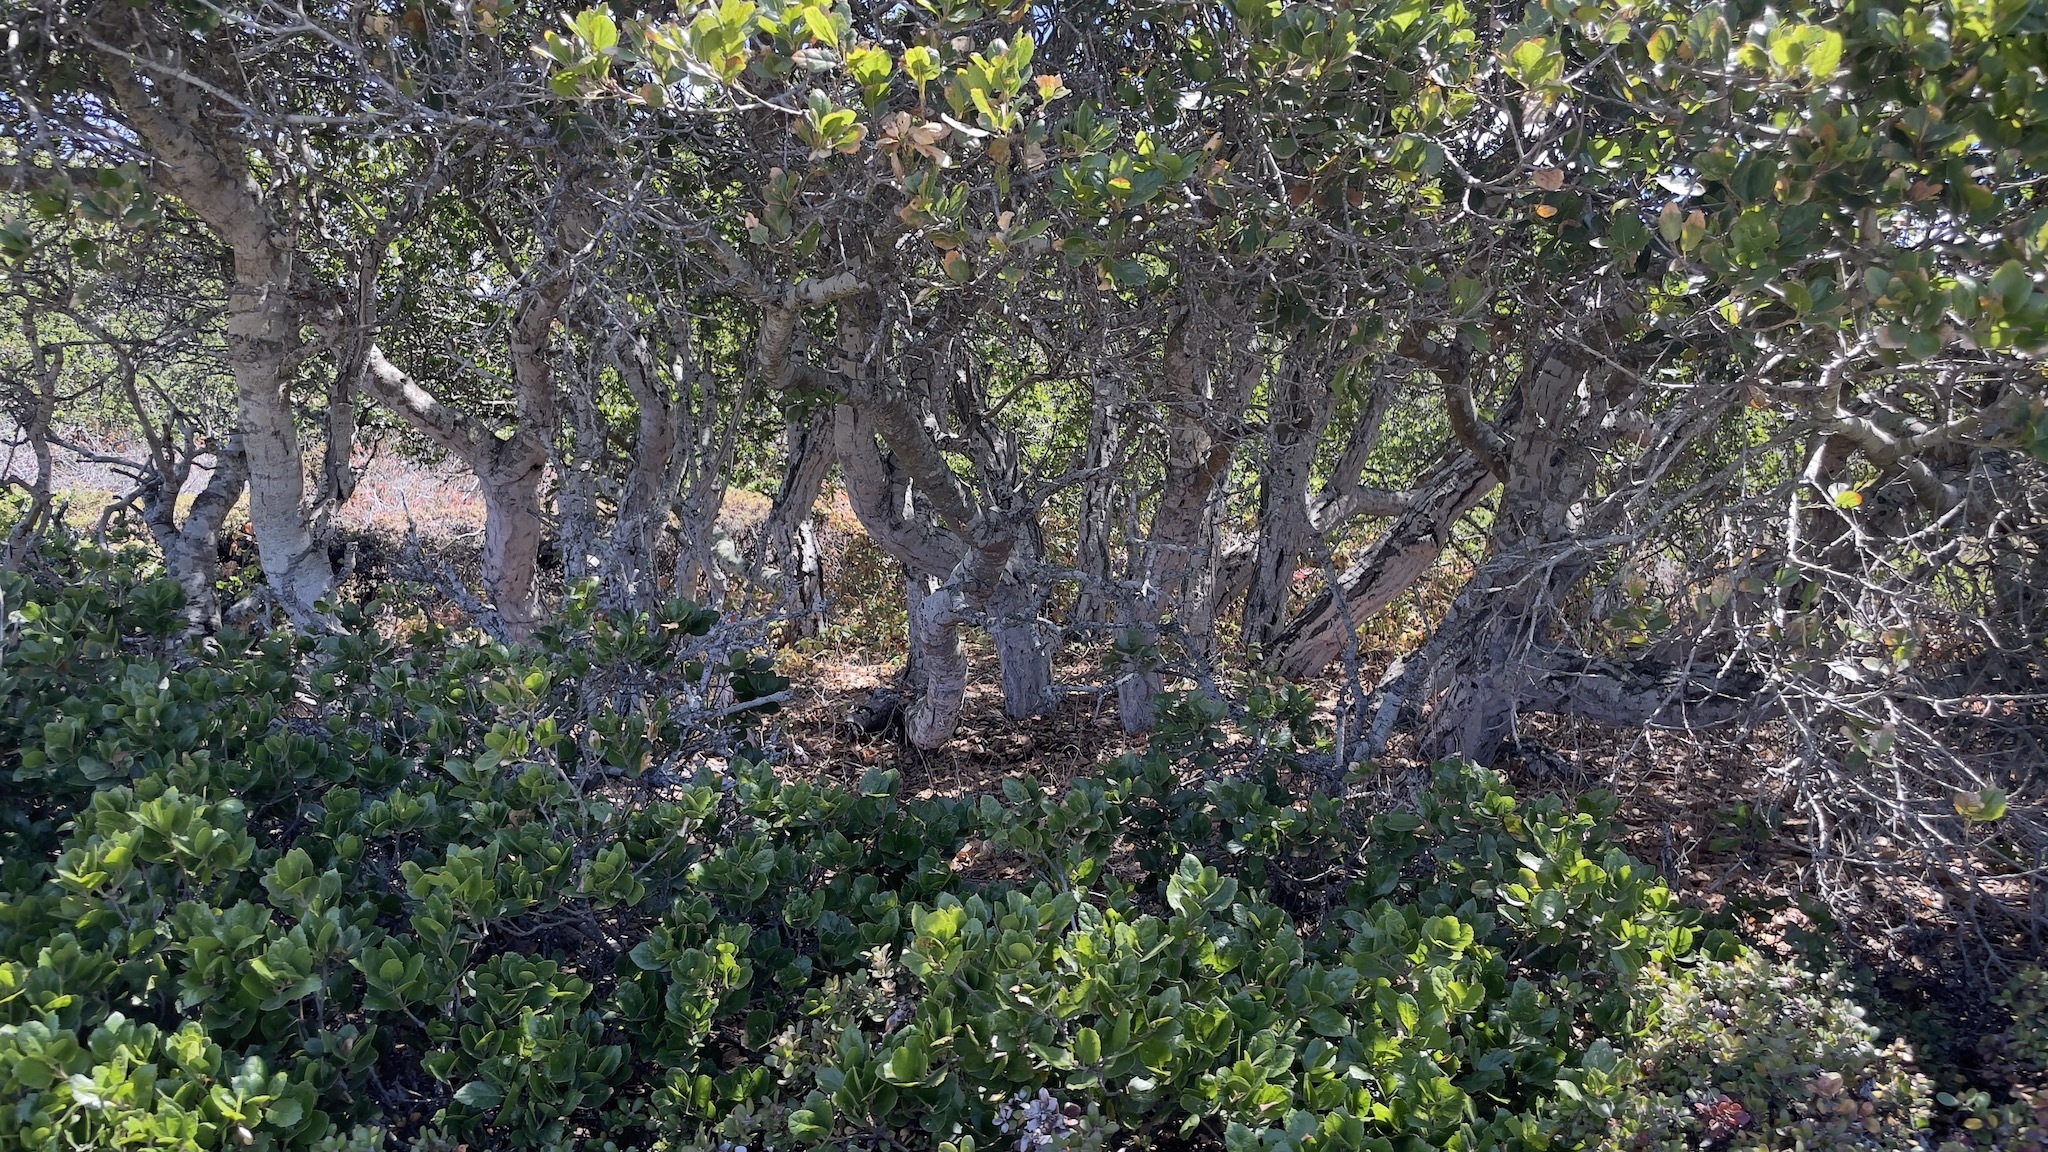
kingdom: Plantae
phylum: Tracheophyta
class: Magnoliopsida
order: Fagales
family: Fagaceae
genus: Quercus
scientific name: Quercus agrifolia
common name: California live oak
